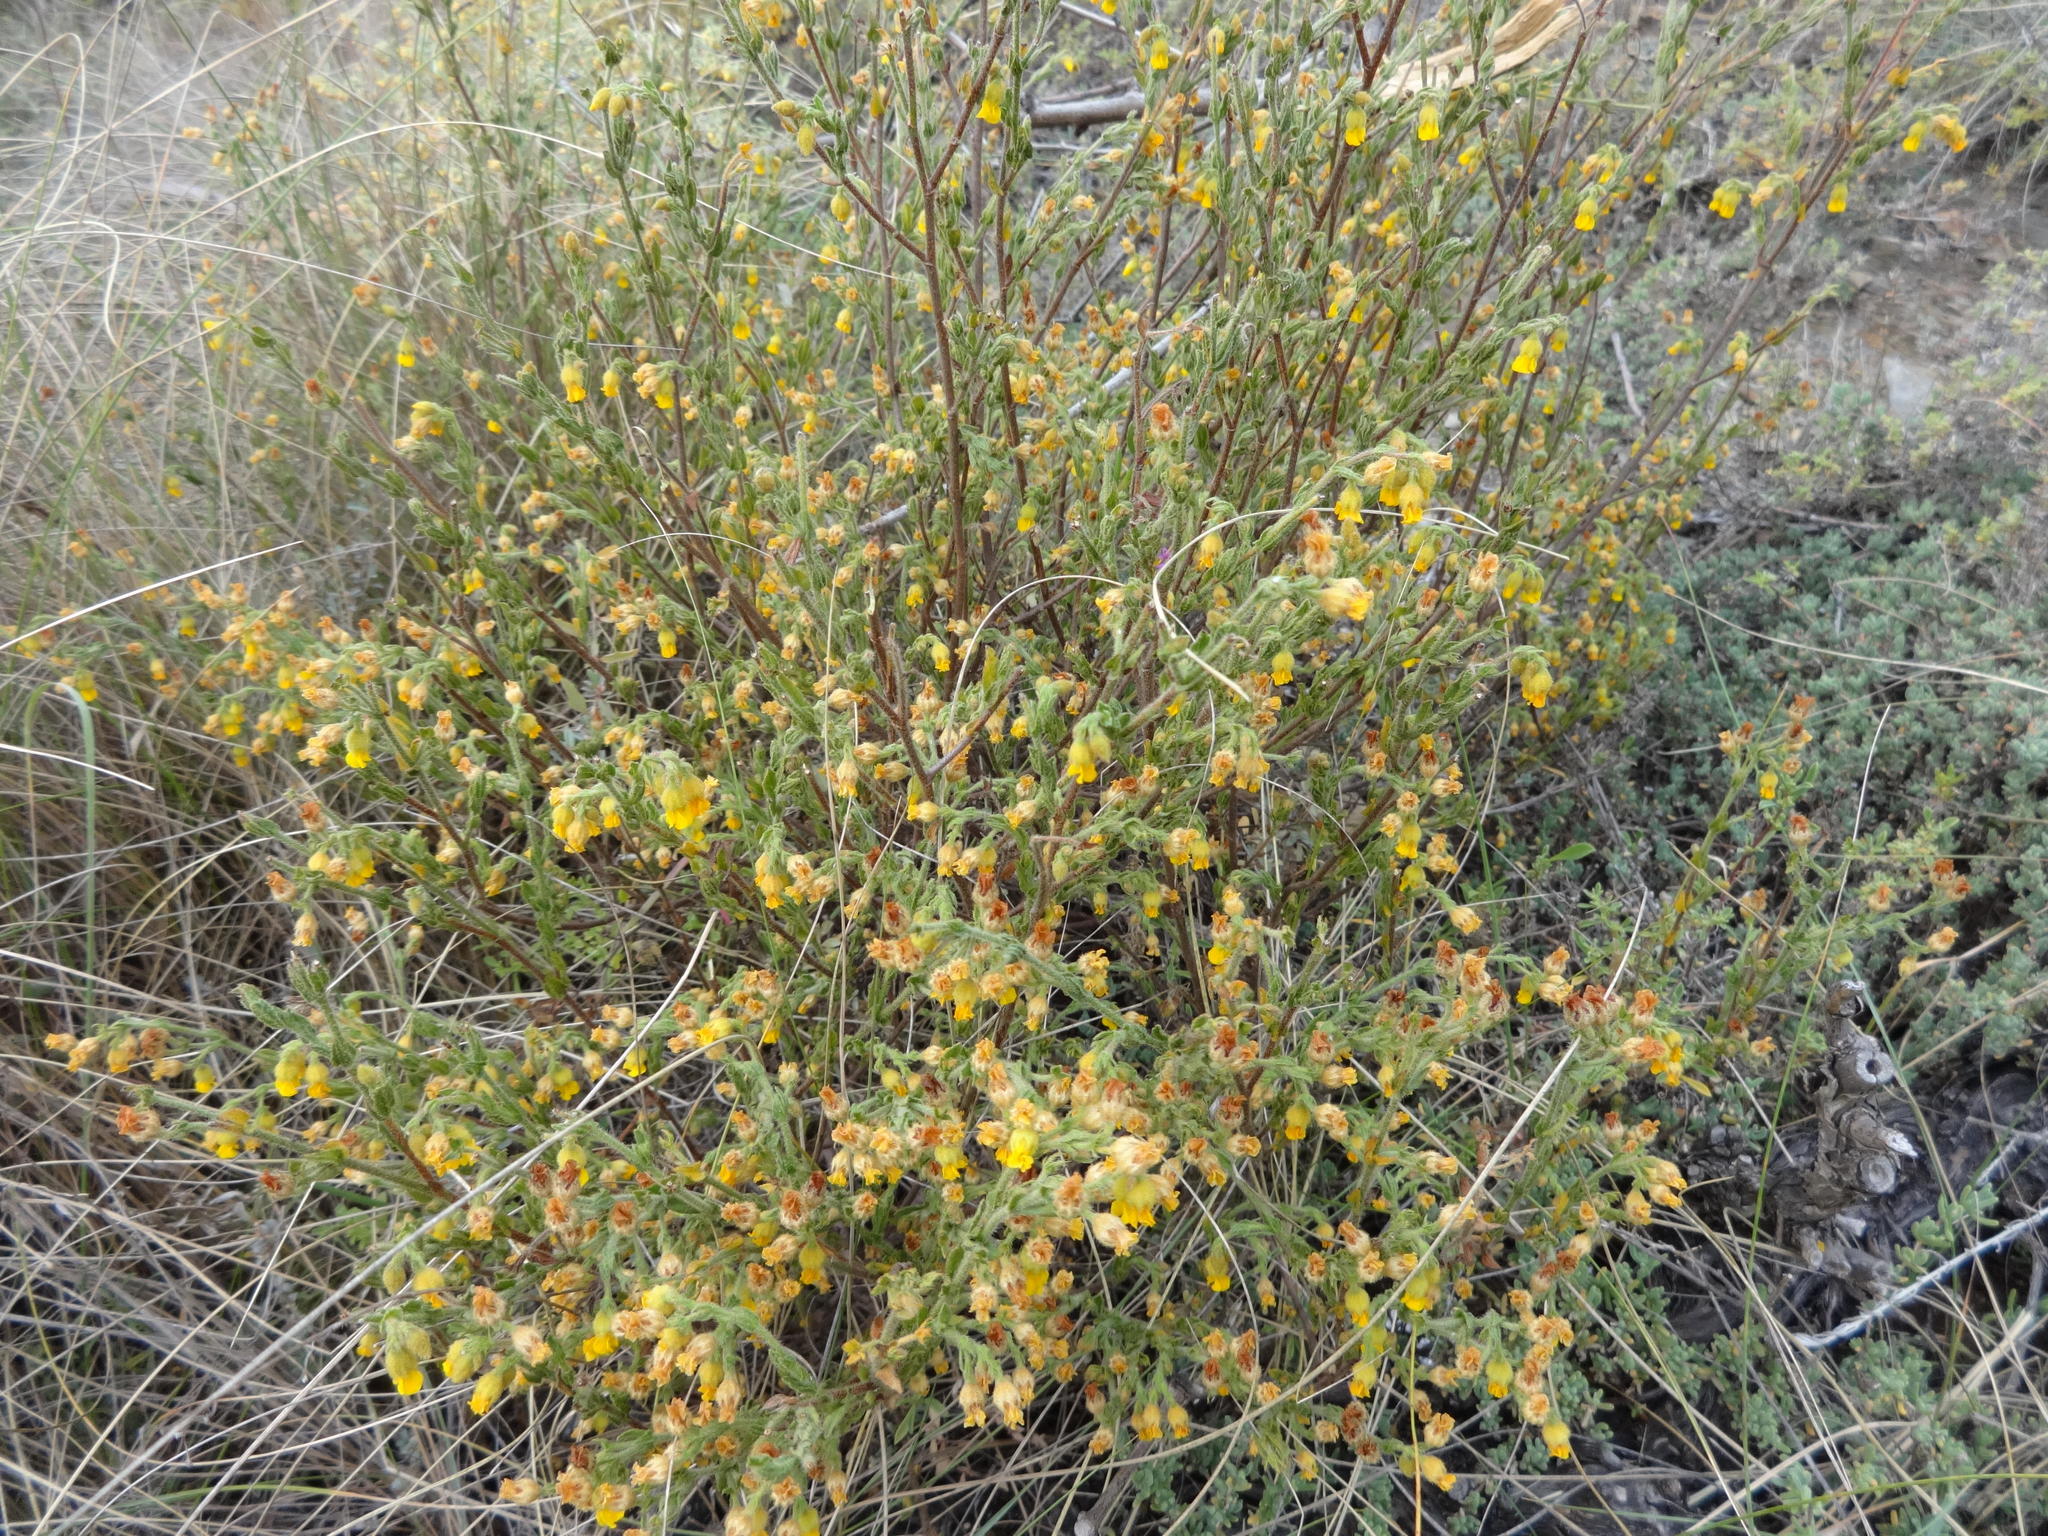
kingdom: Plantae
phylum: Tracheophyta
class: Magnoliopsida
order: Malvales
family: Malvaceae
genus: Hermannia
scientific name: Hermannia stipulacea
